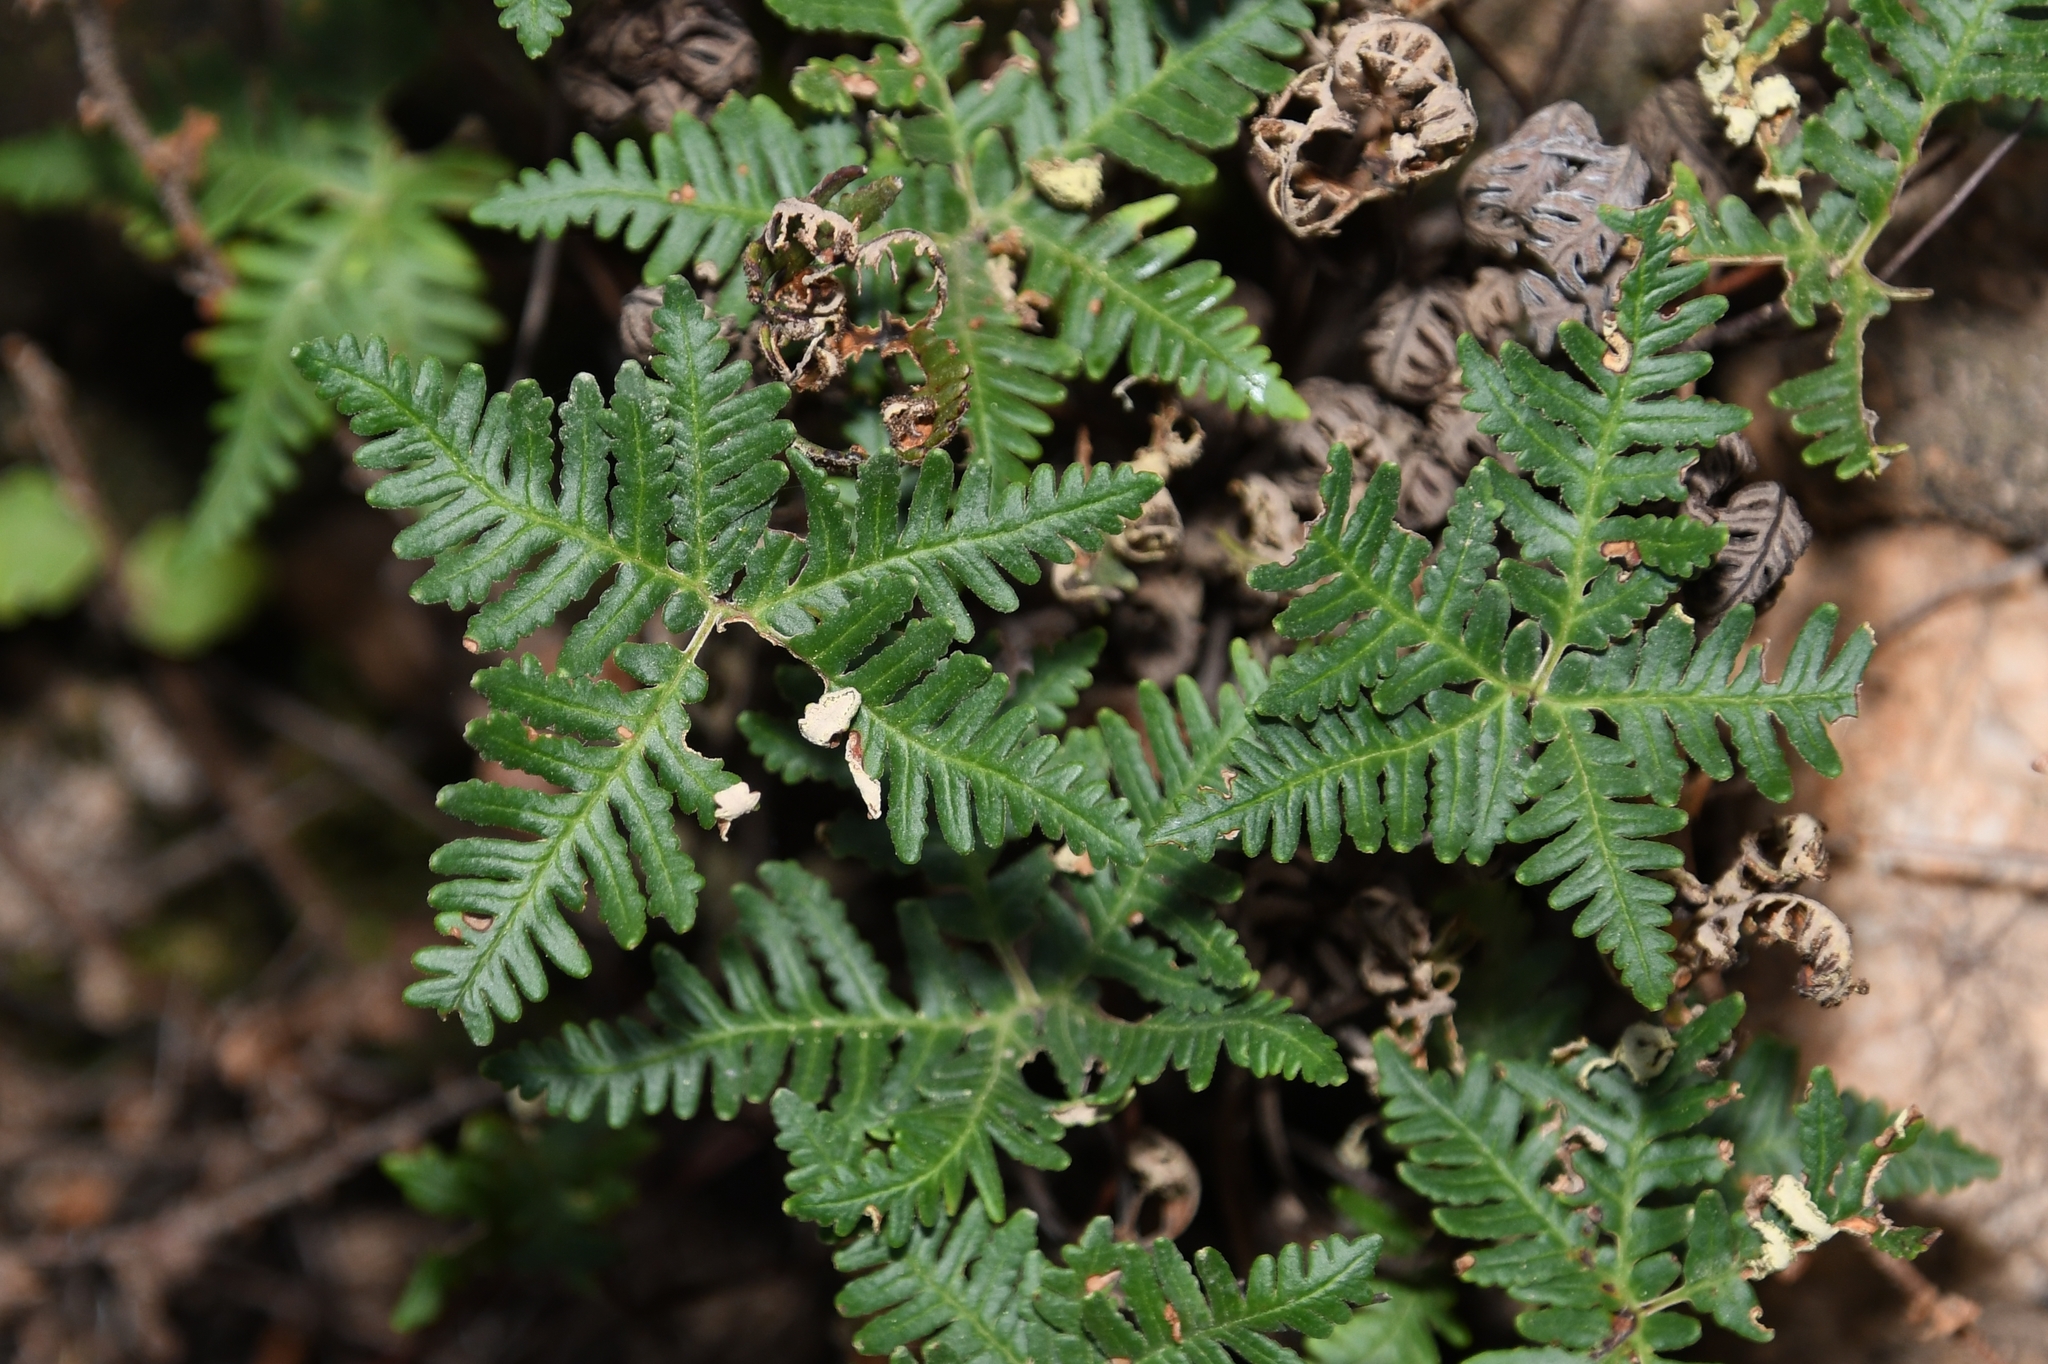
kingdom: Plantae
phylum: Tracheophyta
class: Polypodiopsida
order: Polypodiales
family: Pteridaceae
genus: Notholaena
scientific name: Notholaena standleyi
